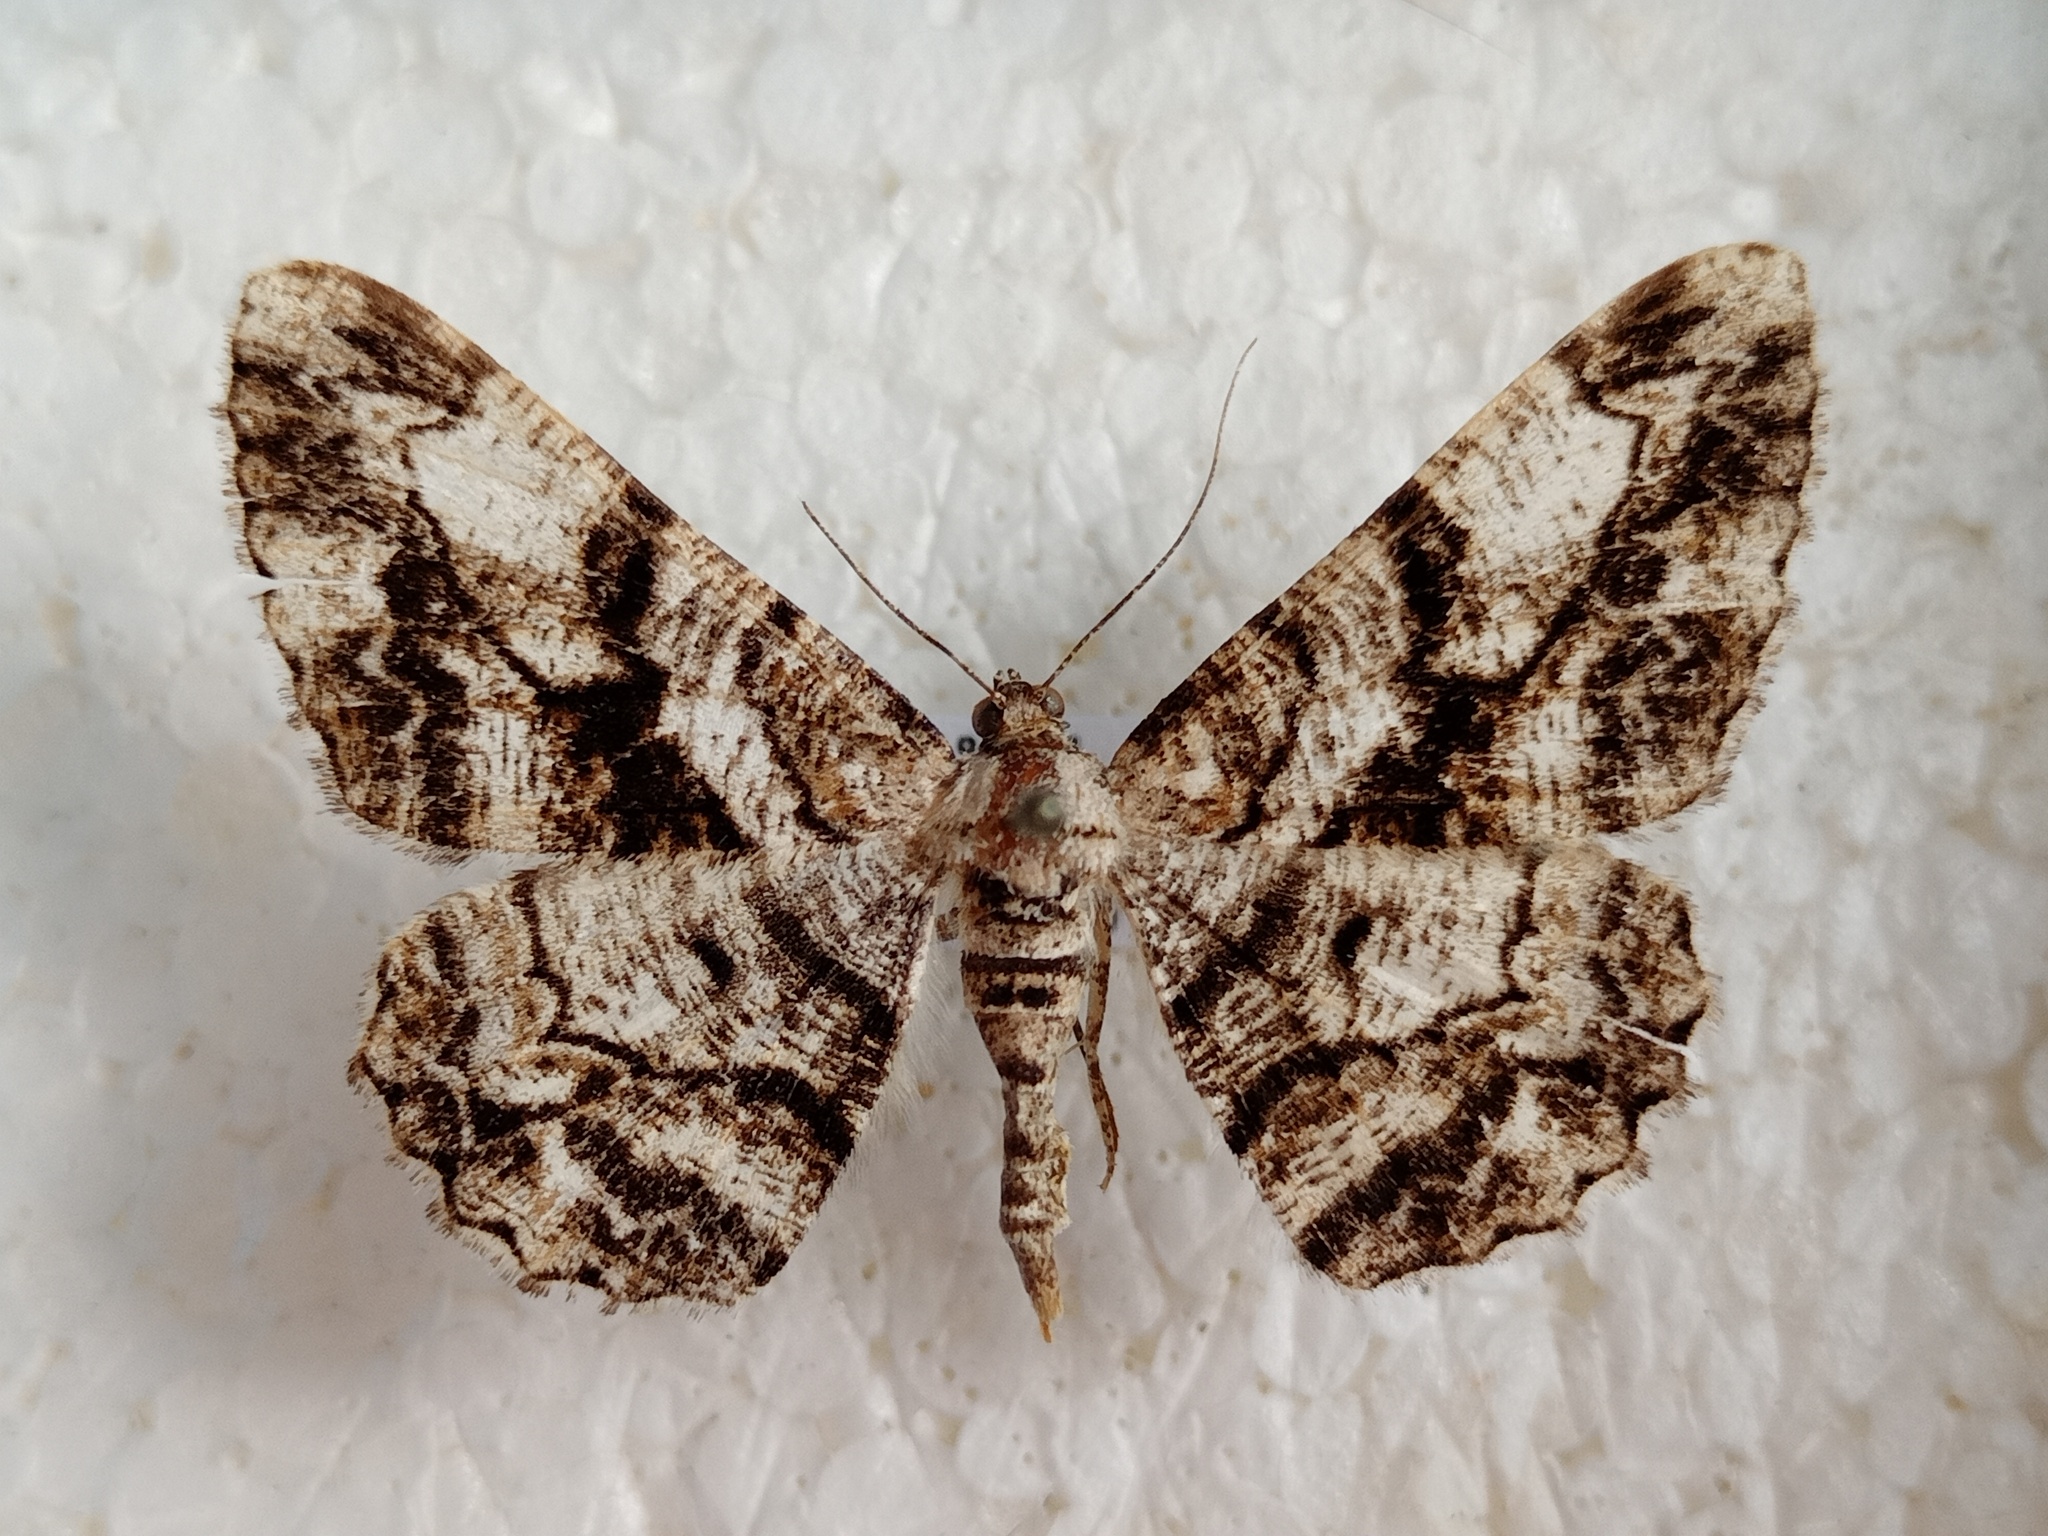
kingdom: Animalia
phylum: Arthropoda
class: Insecta
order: Lepidoptera
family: Geometridae
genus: Peribatodes
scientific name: Peribatodes umbraria
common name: Olive-tree beauty
